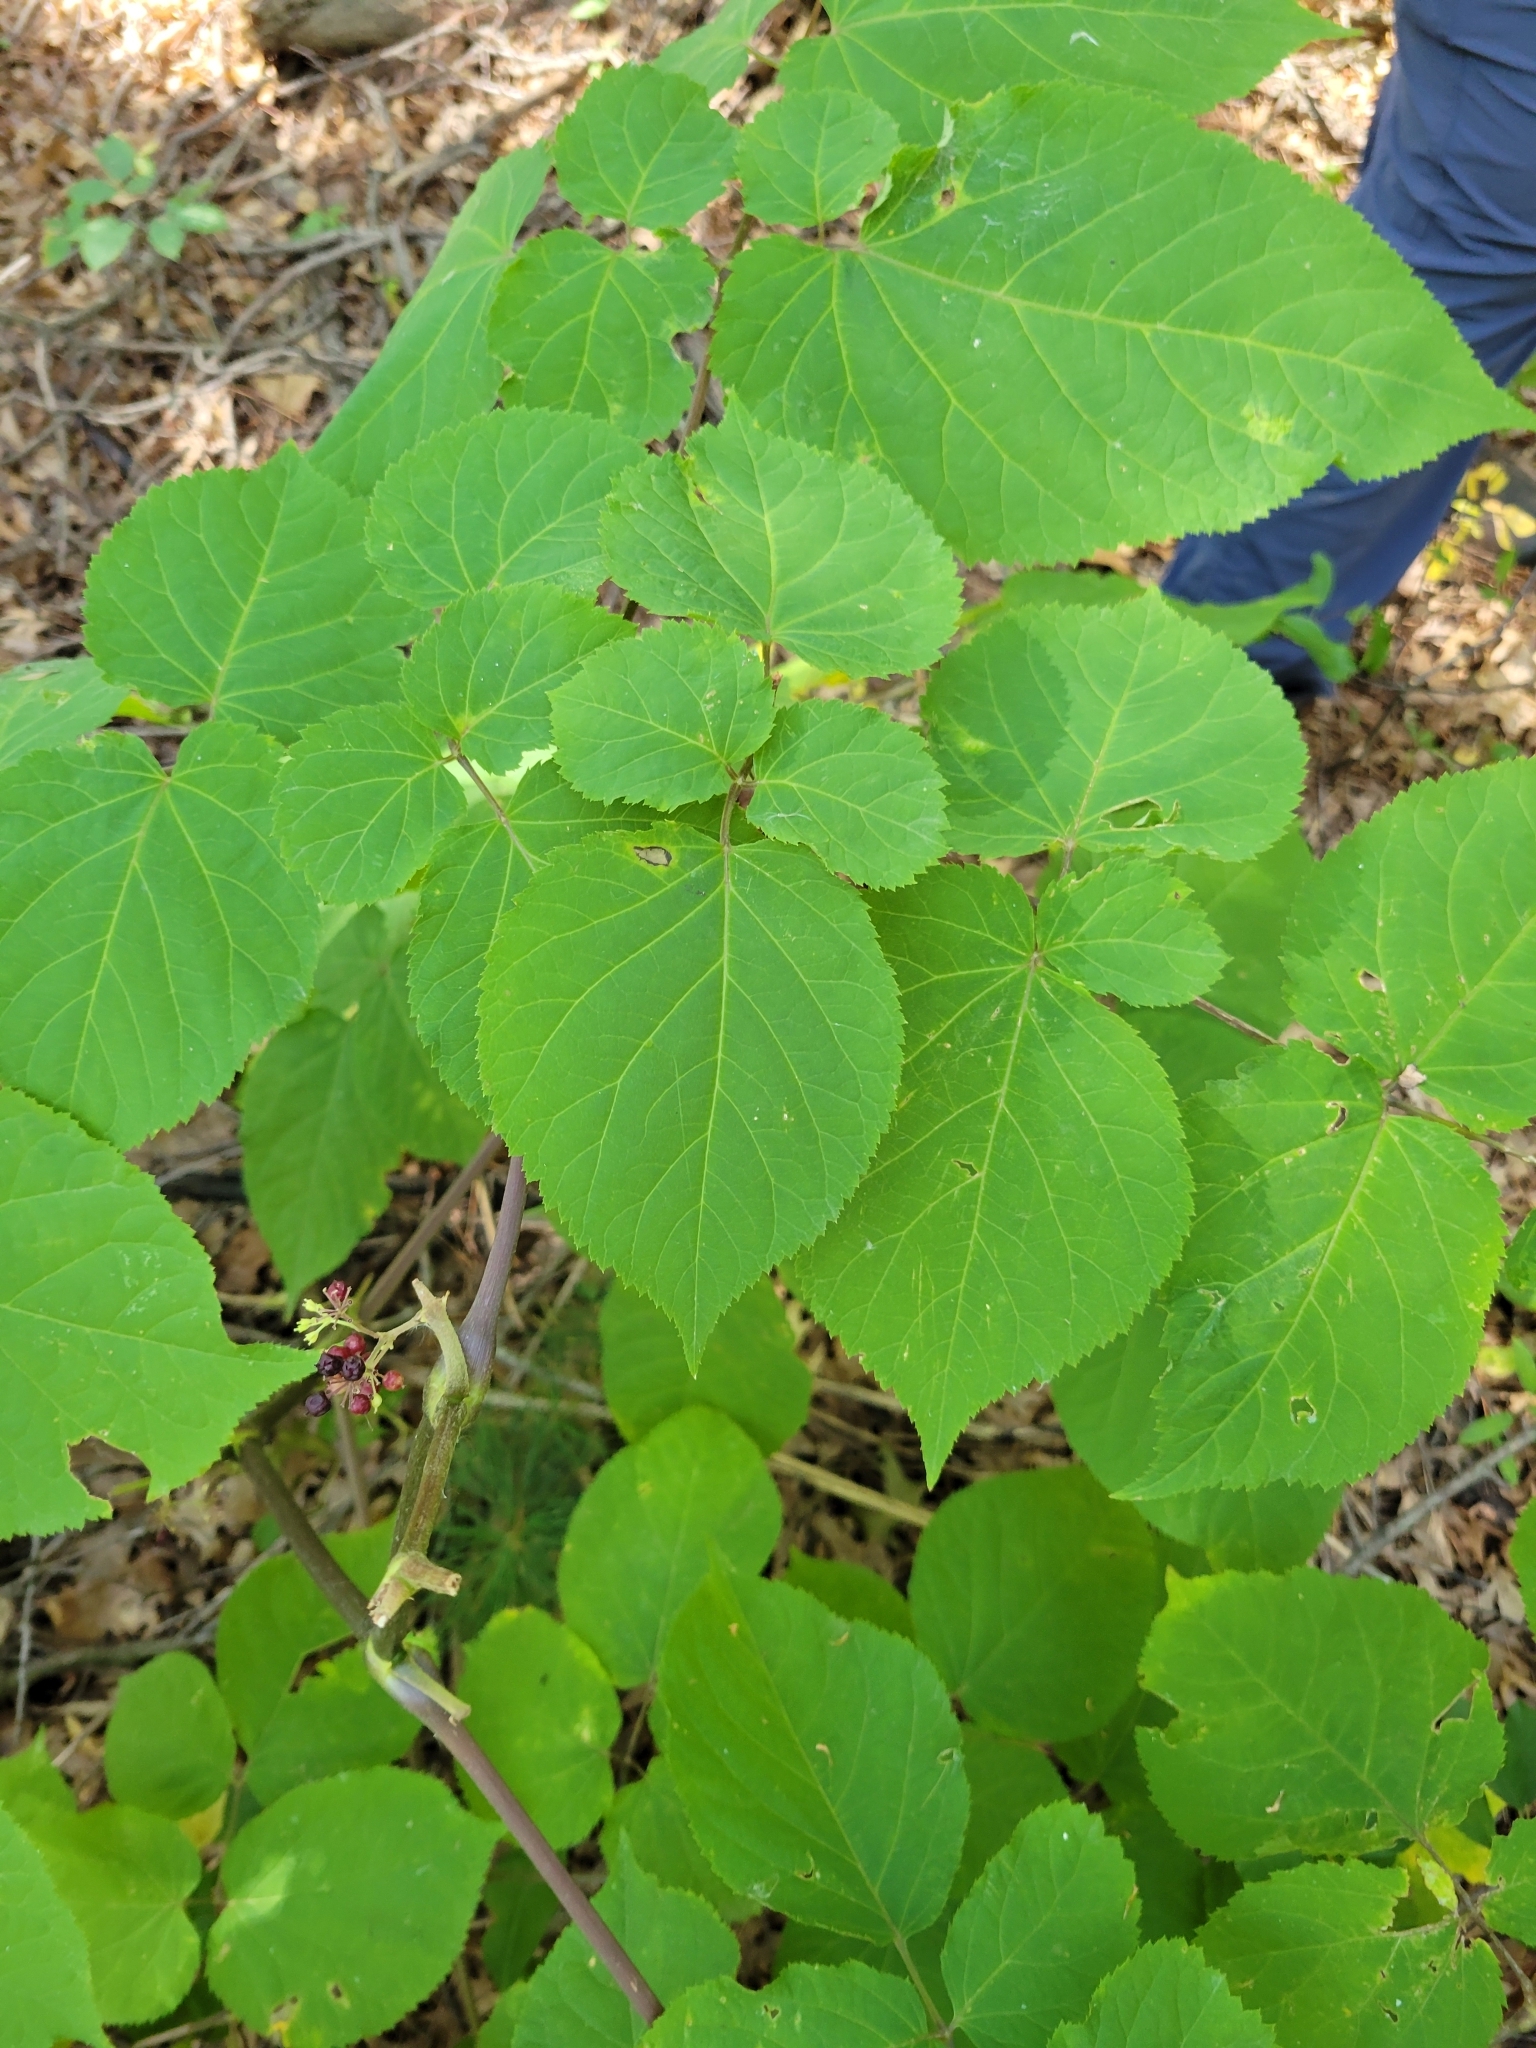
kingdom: Plantae
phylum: Tracheophyta
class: Magnoliopsida
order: Apiales
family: Araliaceae
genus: Aralia
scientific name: Aralia racemosa
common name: American-spikenard
